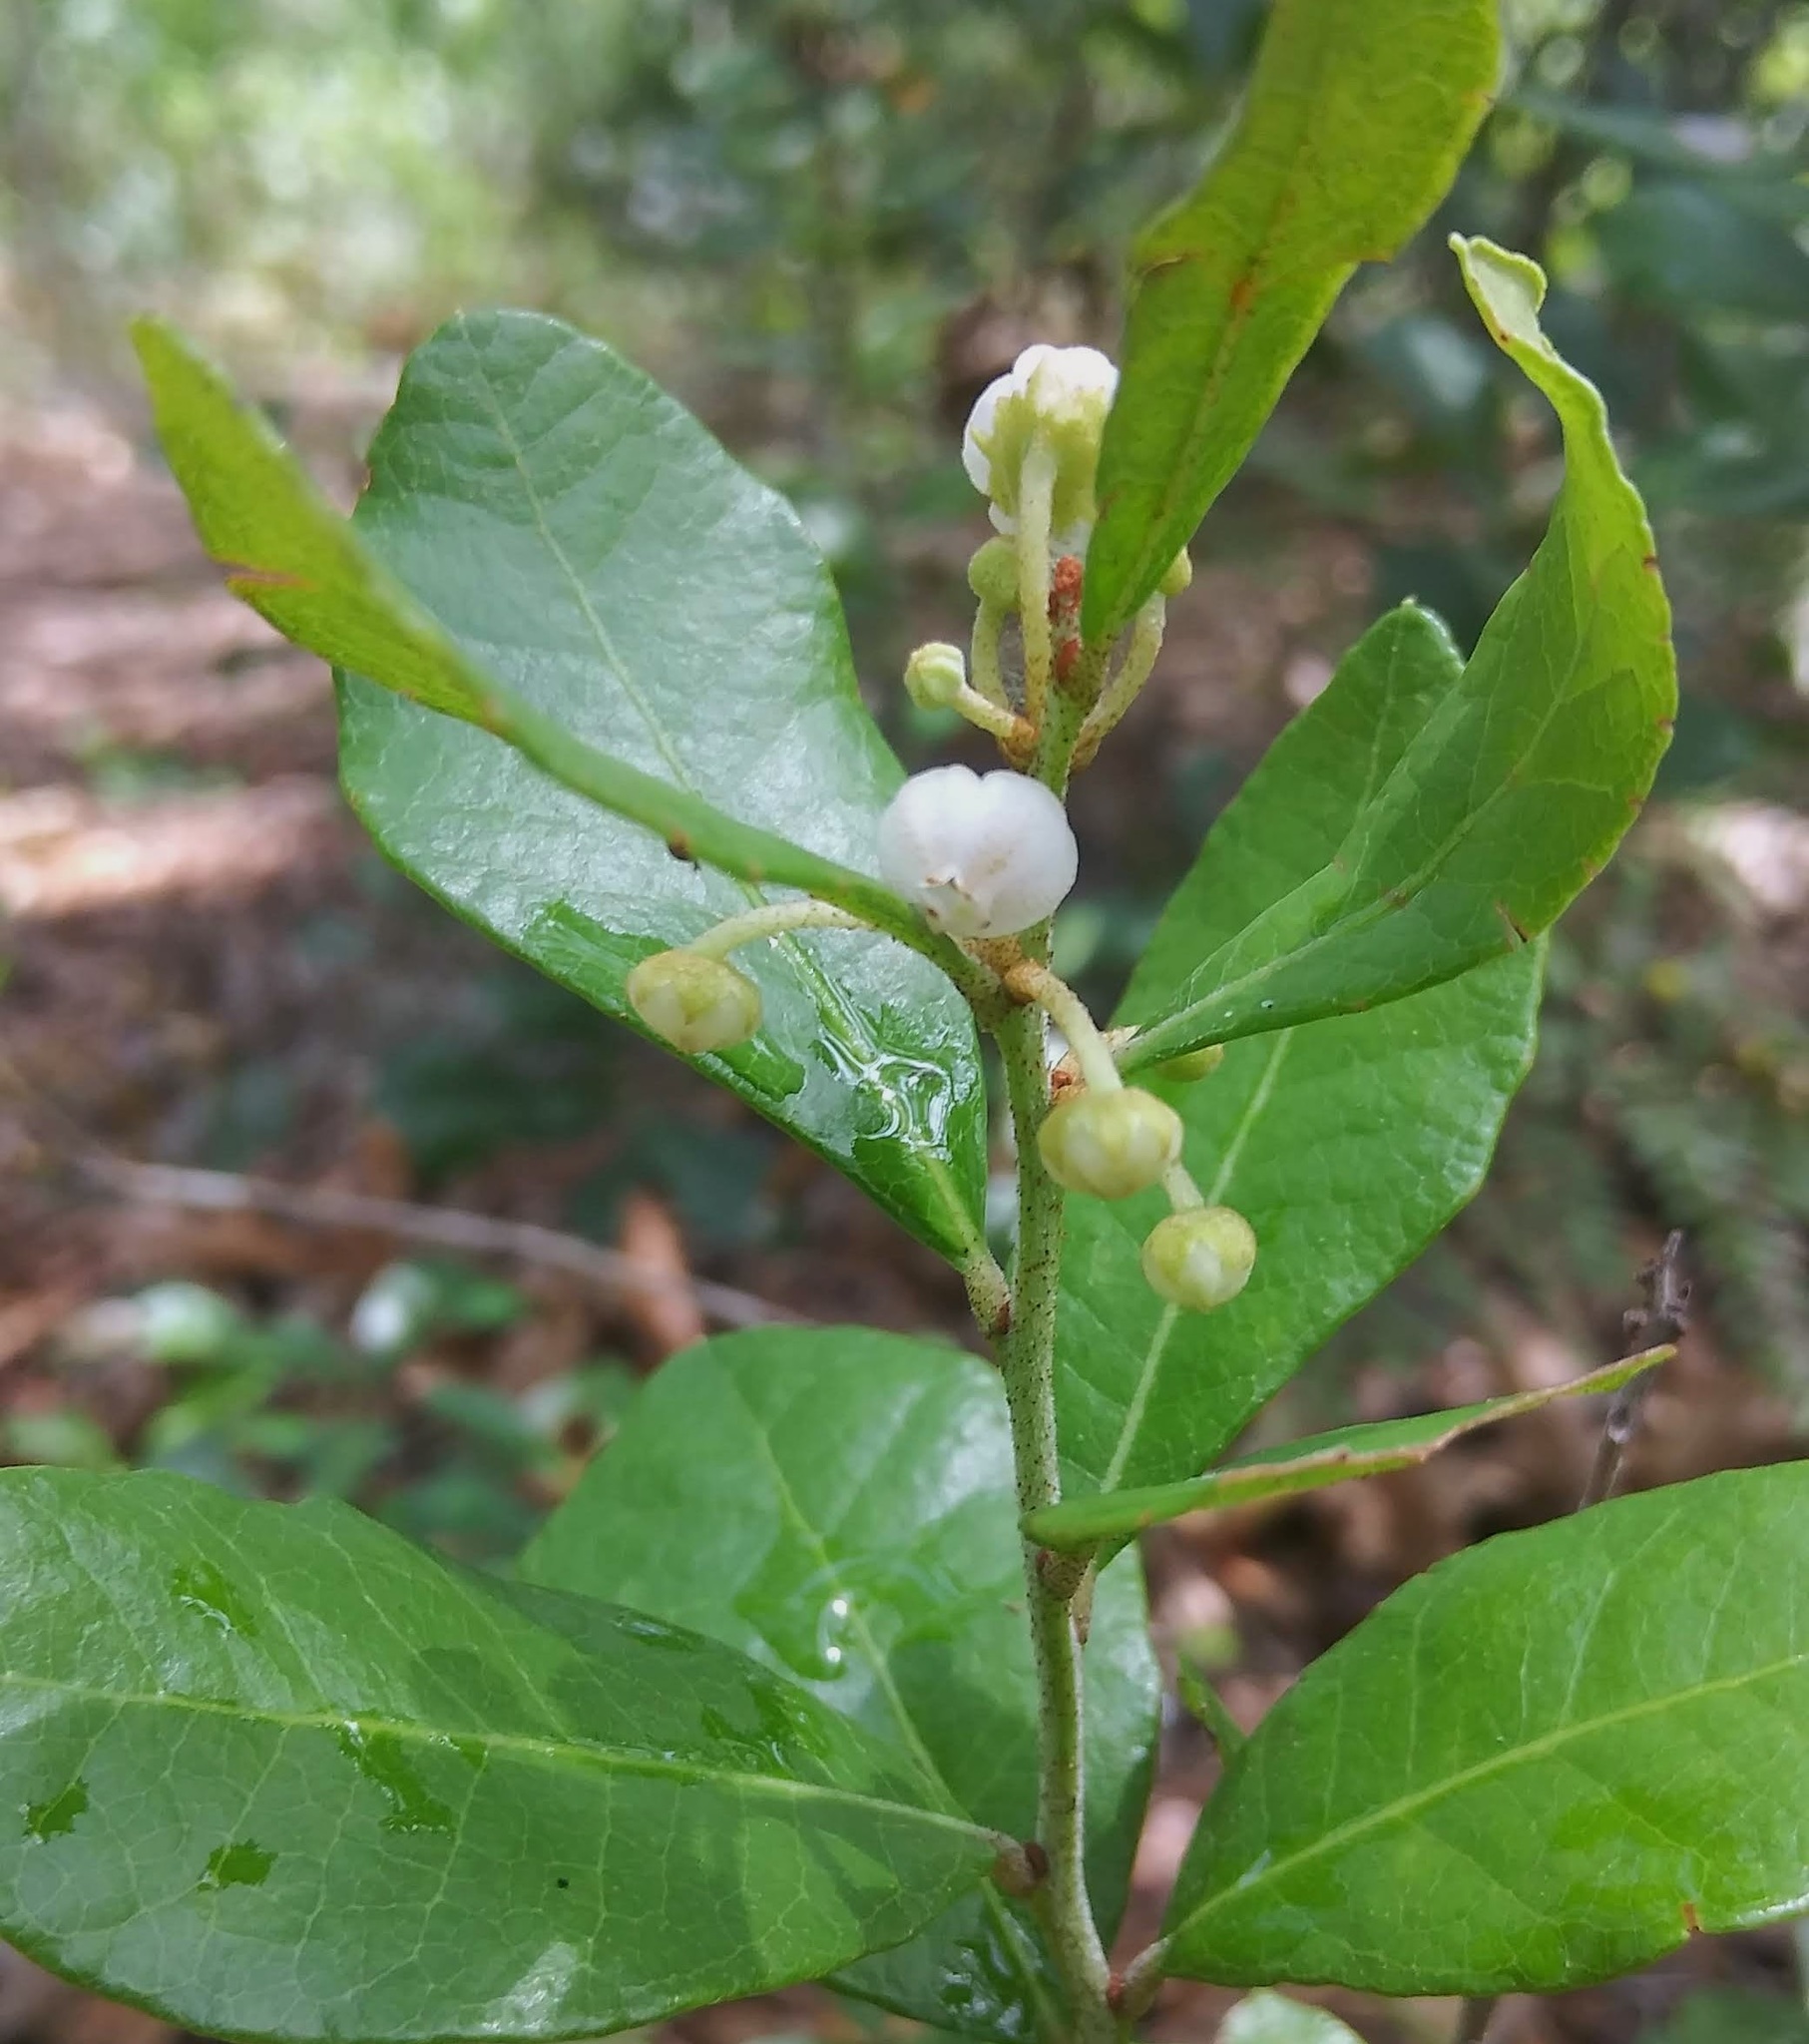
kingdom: Plantae
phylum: Tracheophyta
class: Magnoliopsida
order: Ericales
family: Ericaceae
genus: Lyonia
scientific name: Lyonia fruticosa
